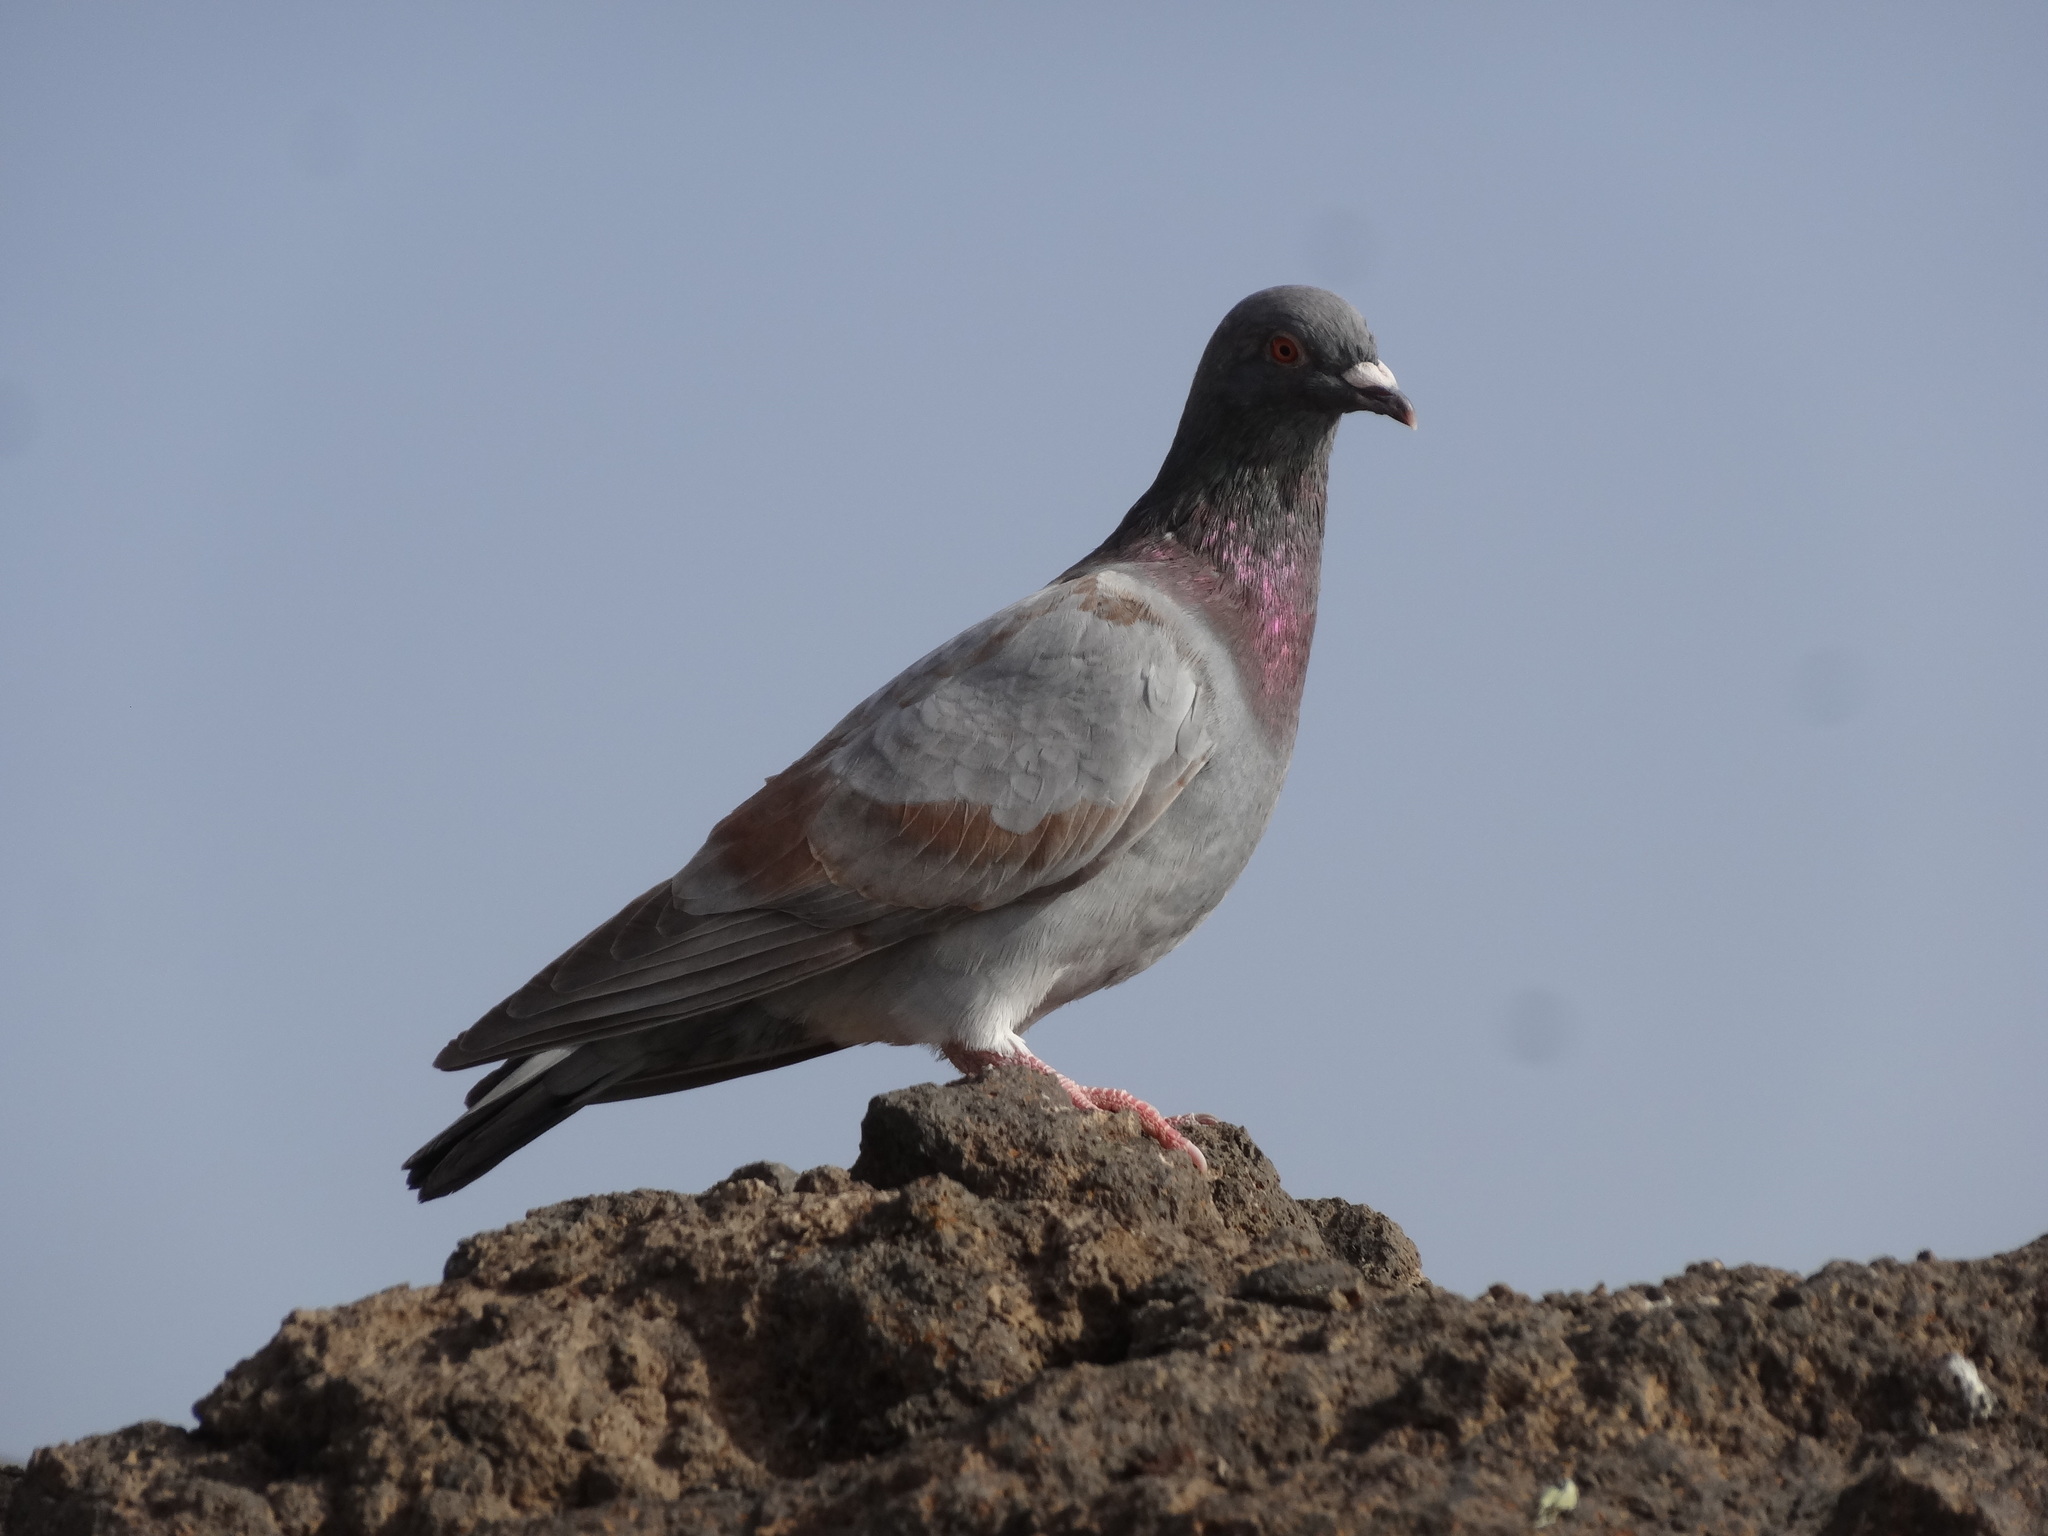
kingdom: Animalia
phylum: Chordata
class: Aves
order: Columbiformes
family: Columbidae
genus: Columba
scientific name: Columba livia
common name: Rock pigeon
